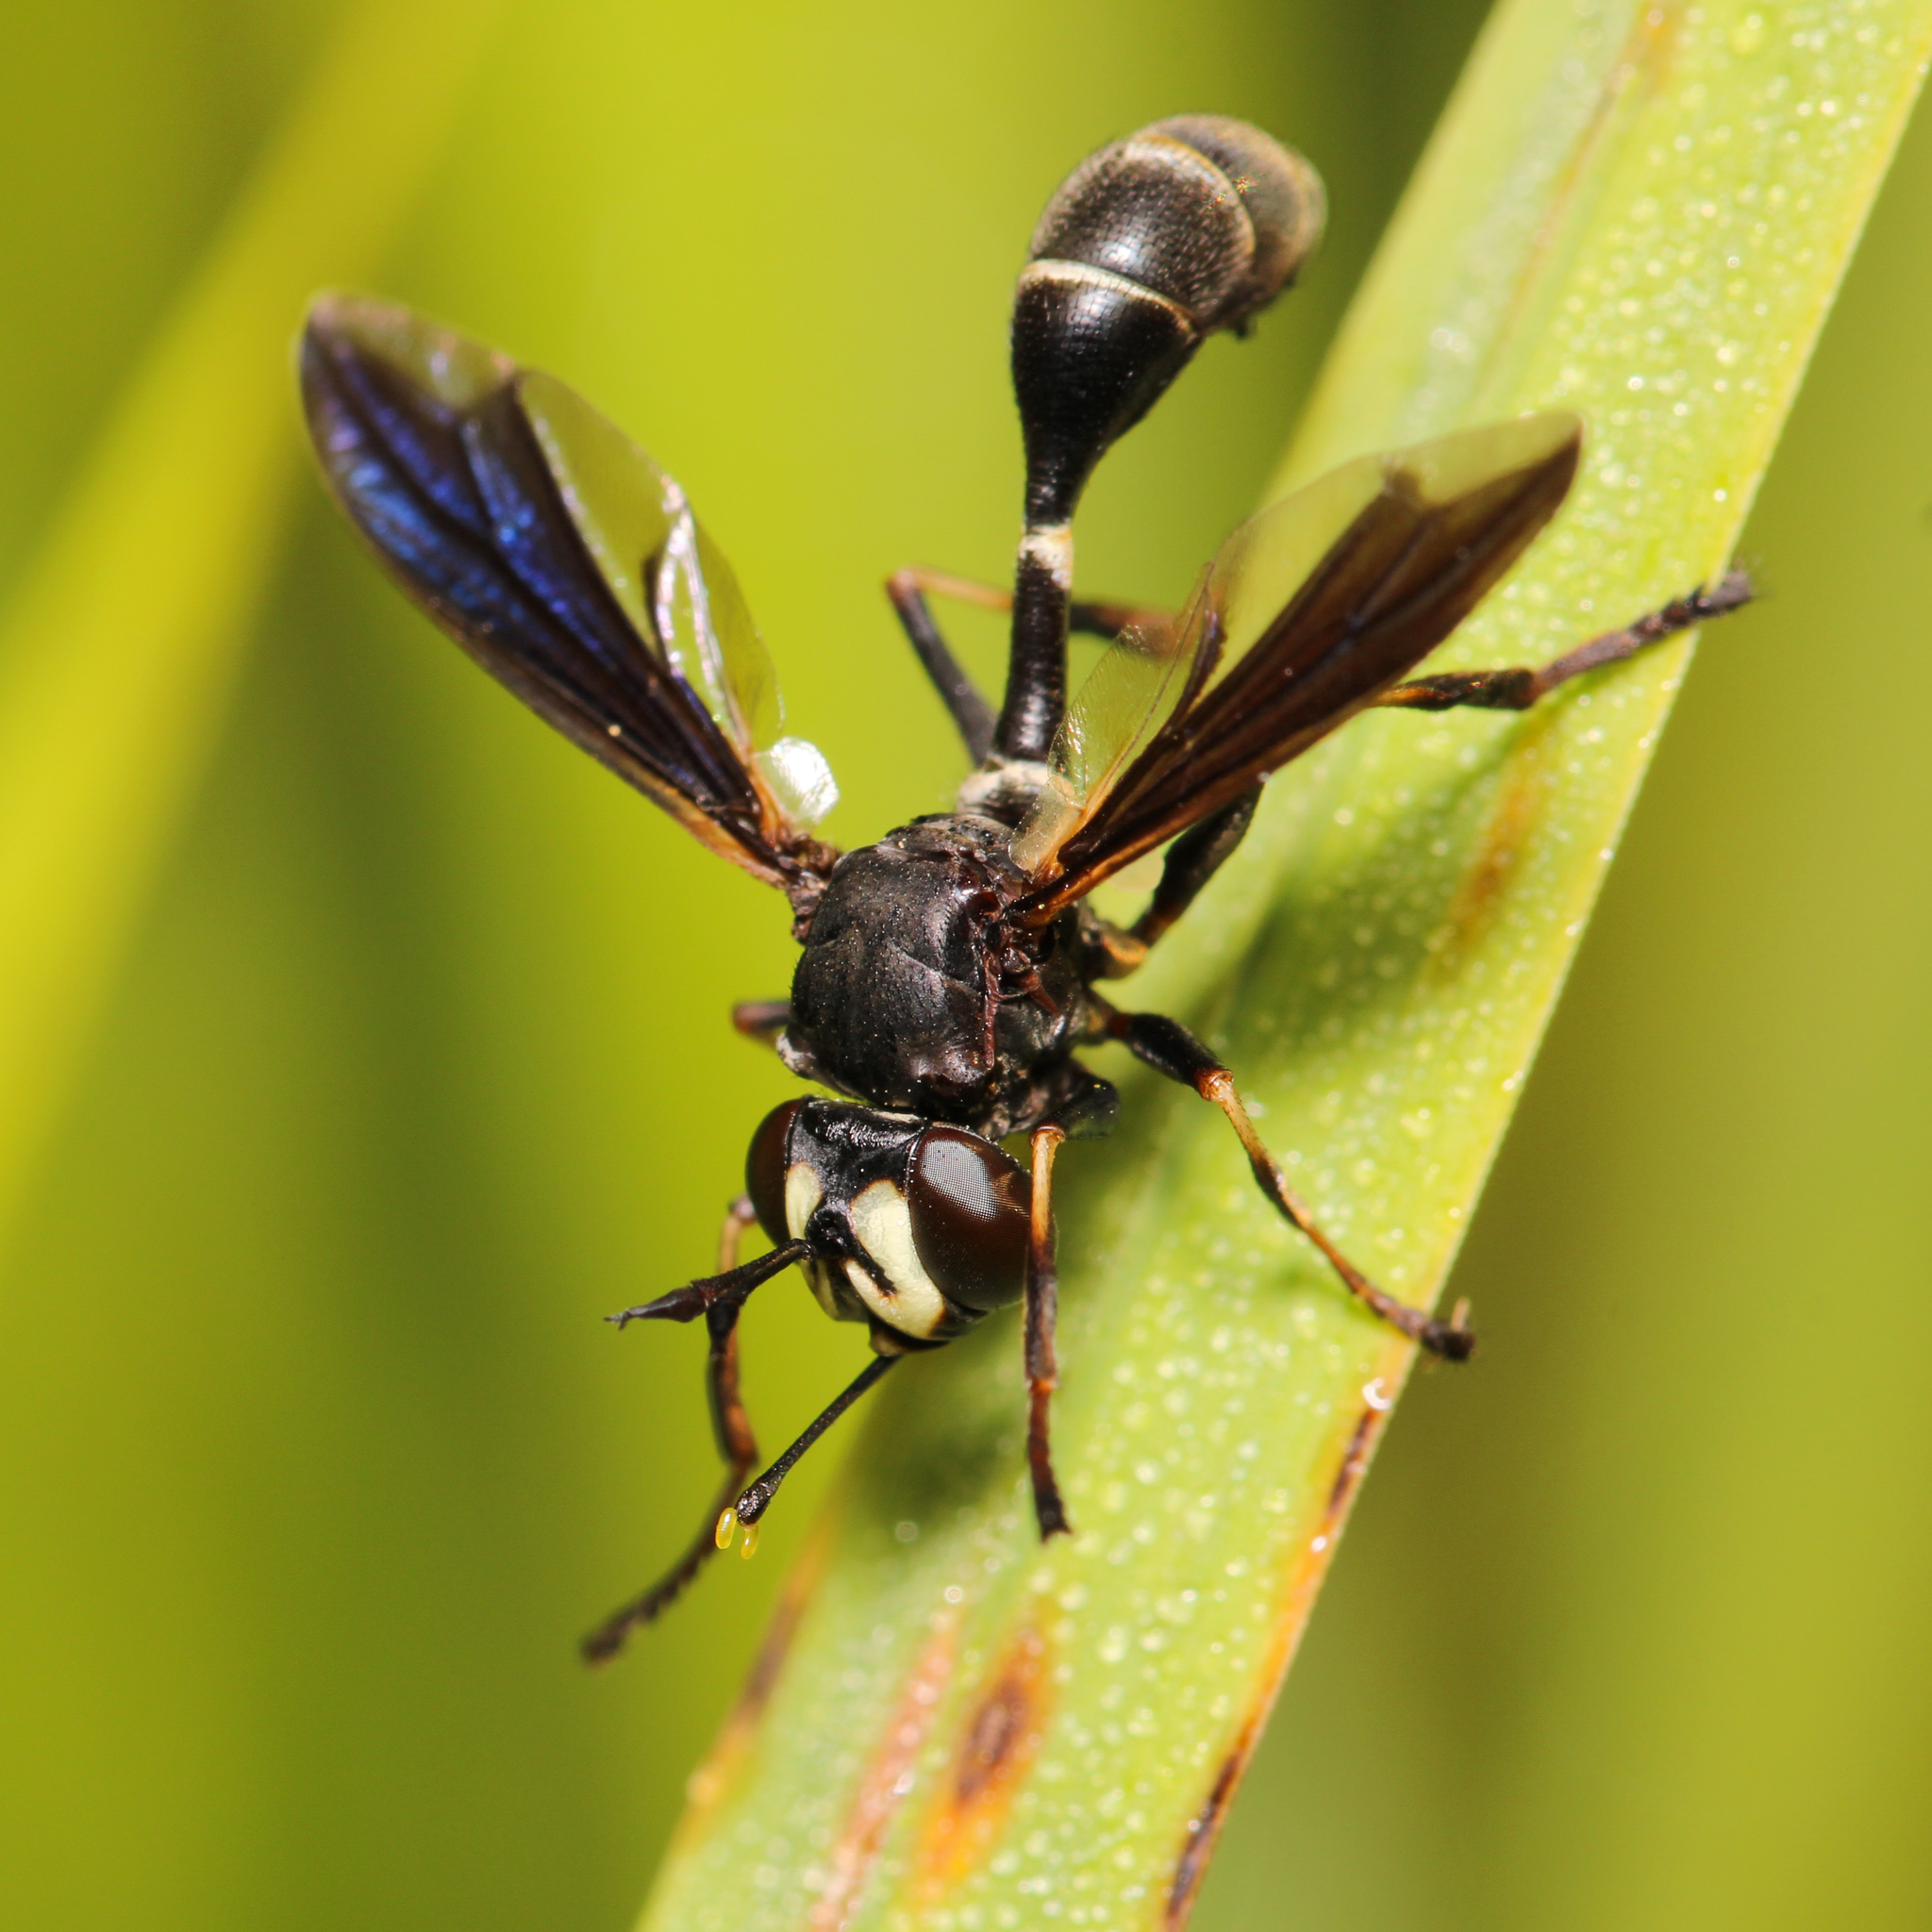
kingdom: Animalia
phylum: Arthropoda
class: Insecta
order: Diptera
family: Conopidae
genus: Physocephala
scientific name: Physocephala tibialis
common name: Common eastern physocephala
